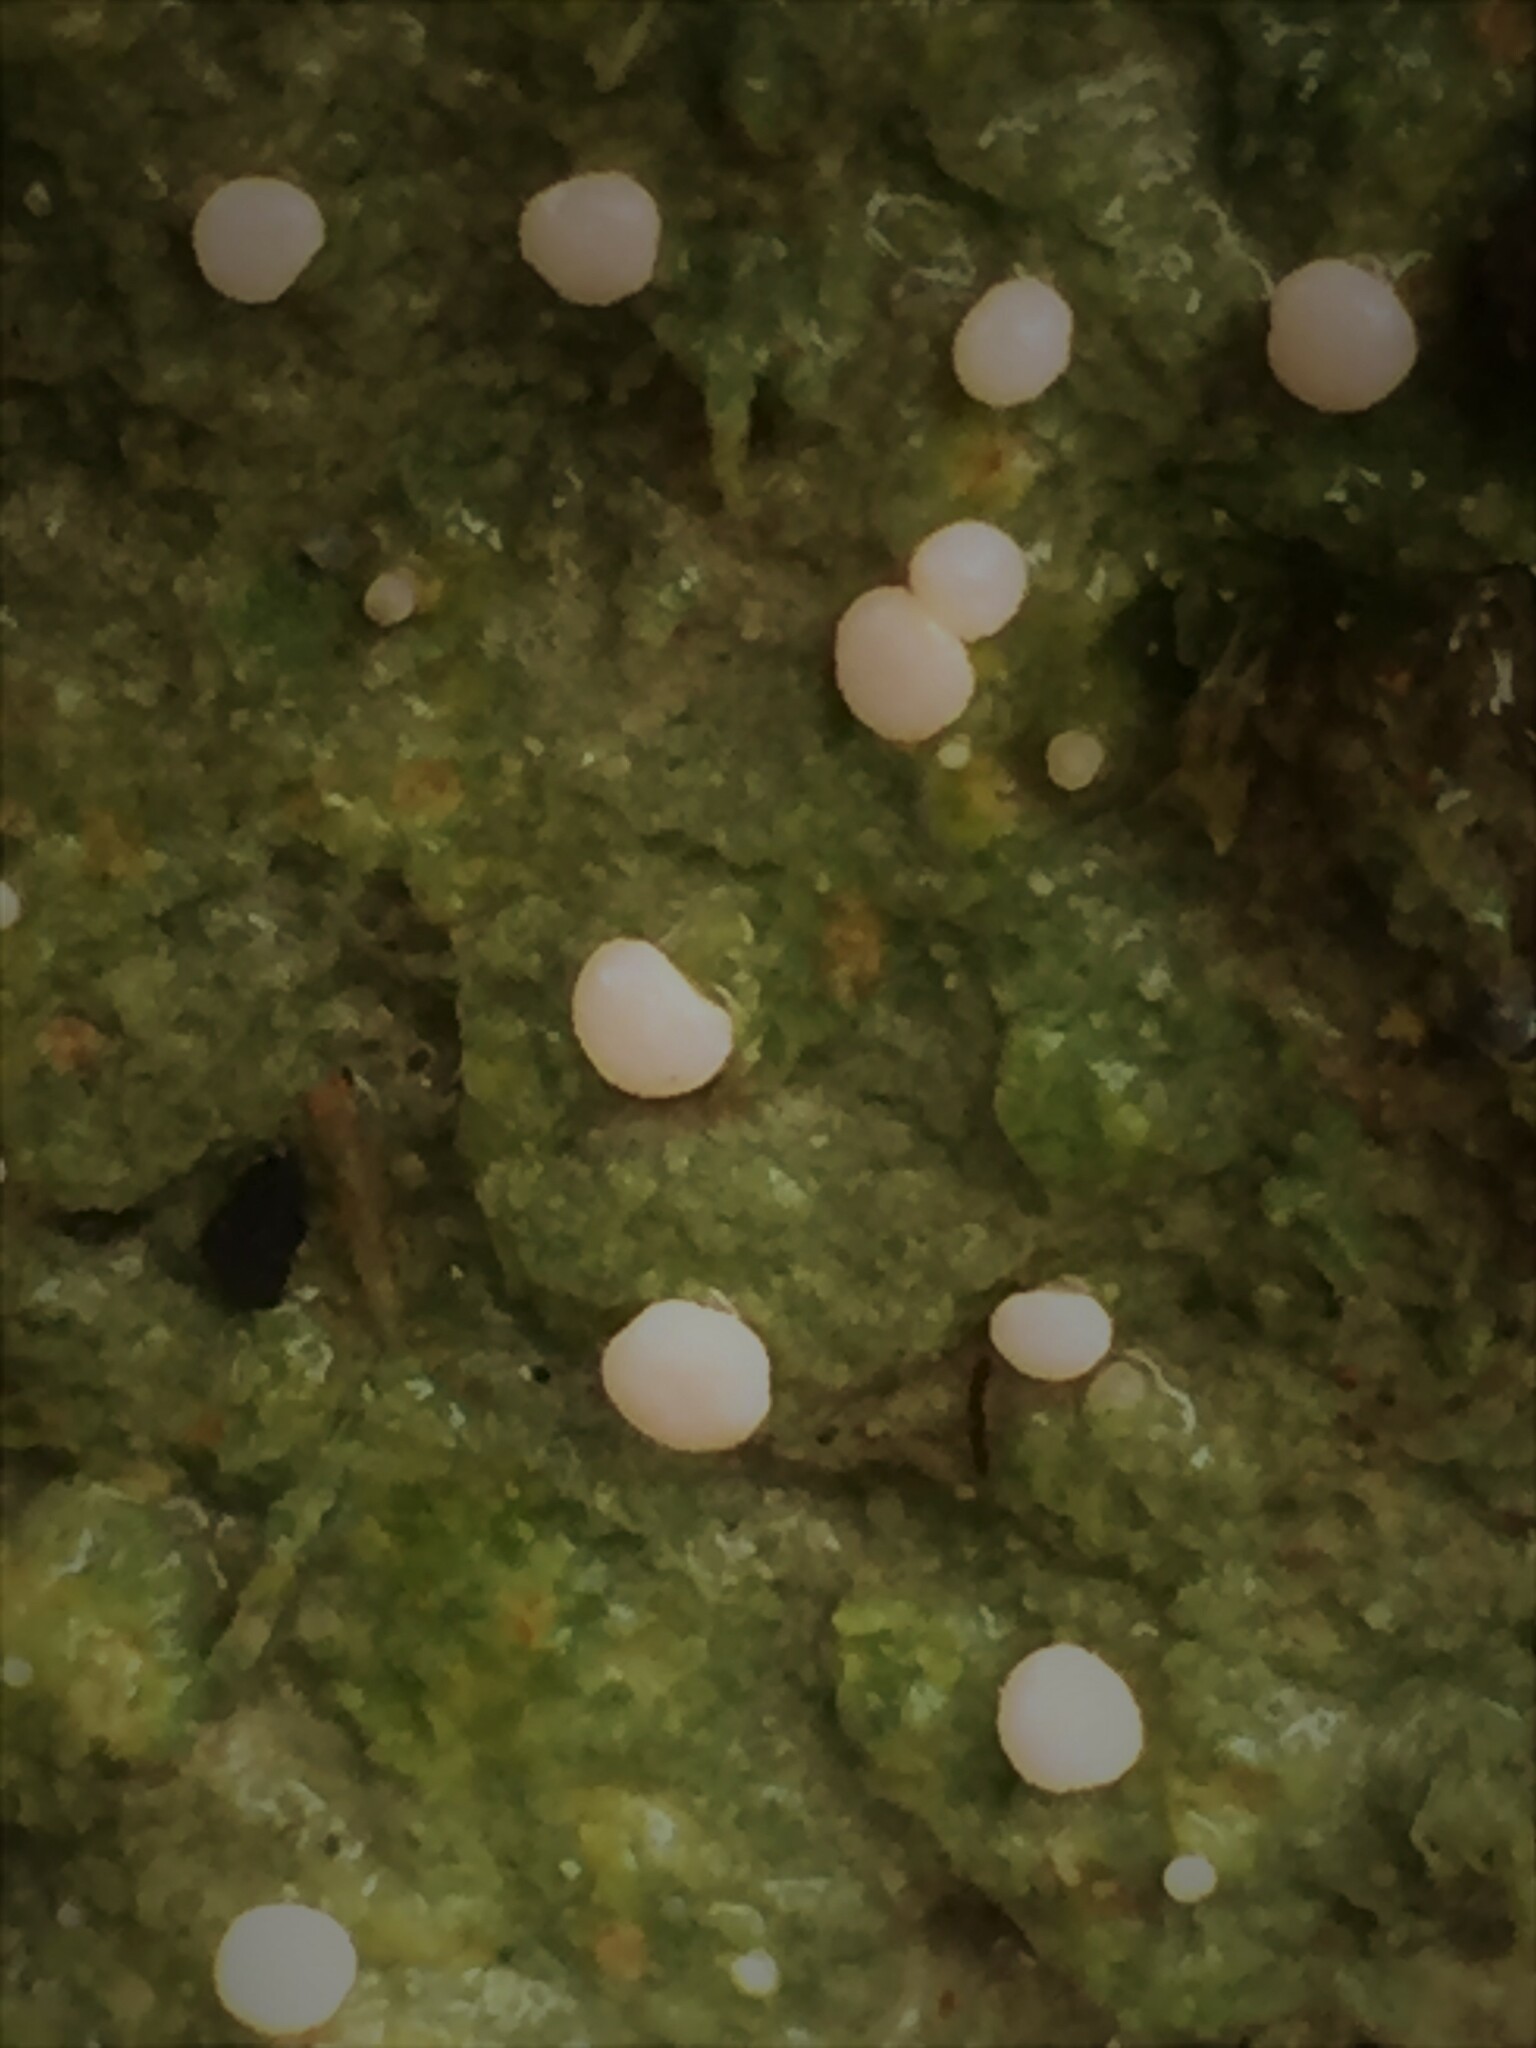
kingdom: Fungi
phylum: Ascomycota
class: Lecanoromycetes
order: Pertusariales
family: Icmadophilaceae
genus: Dibaeis
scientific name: Dibaeis absoluta
